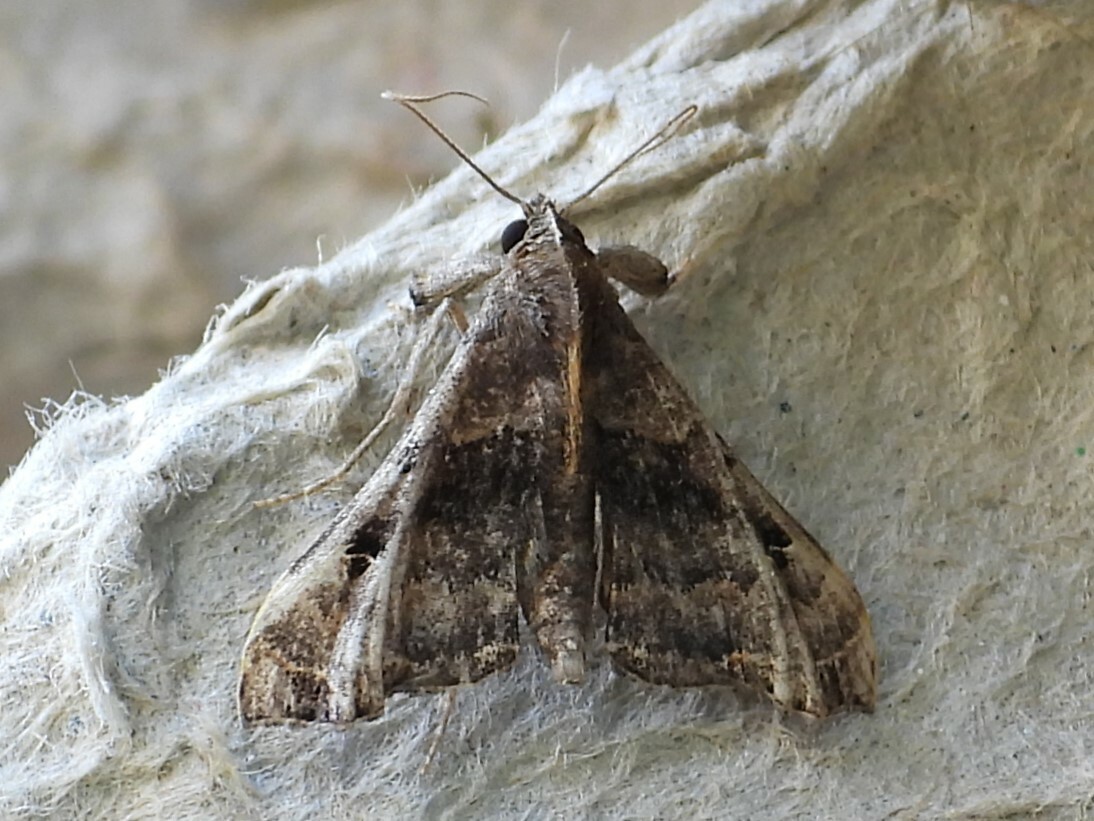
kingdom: Animalia
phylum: Arthropoda
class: Insecta
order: Lepidoptera
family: Erebidae
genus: Palthis
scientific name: Palthis asopialis
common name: Faint-spotted palthis moth
